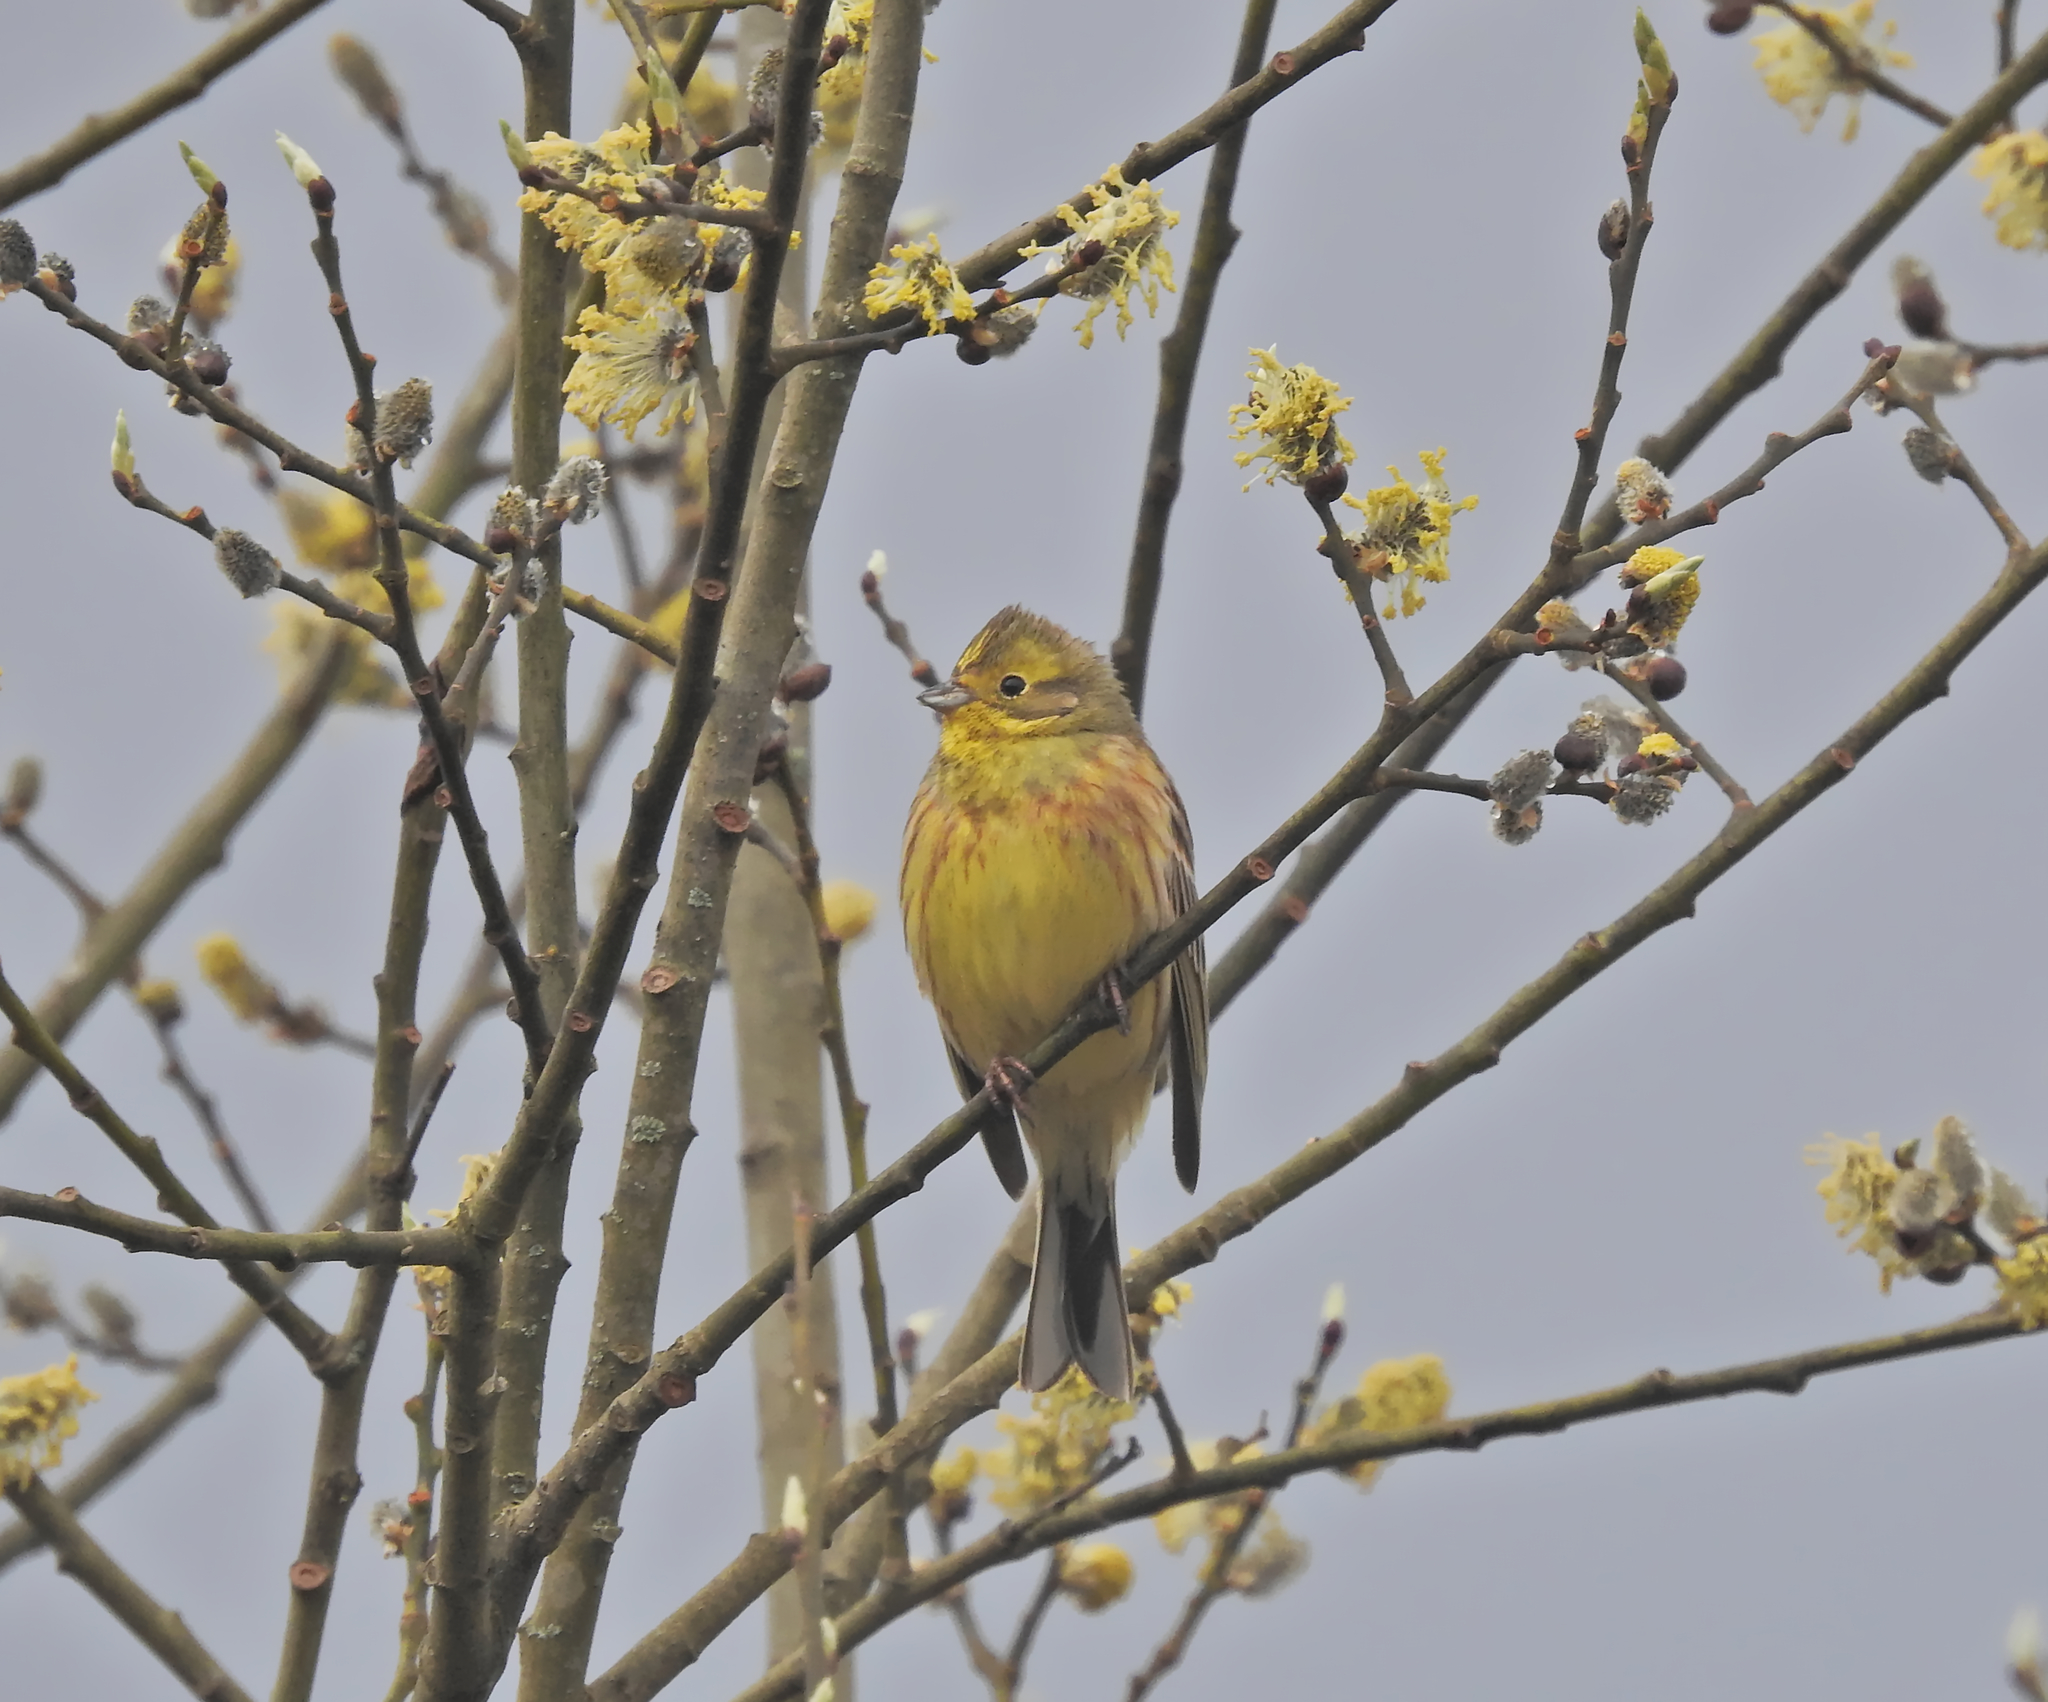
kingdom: Animalia
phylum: Chordata
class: Aves
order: Passeriformes
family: Emberizidae
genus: Emberiza
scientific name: Emberiza citrinella
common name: Yellowhammer
